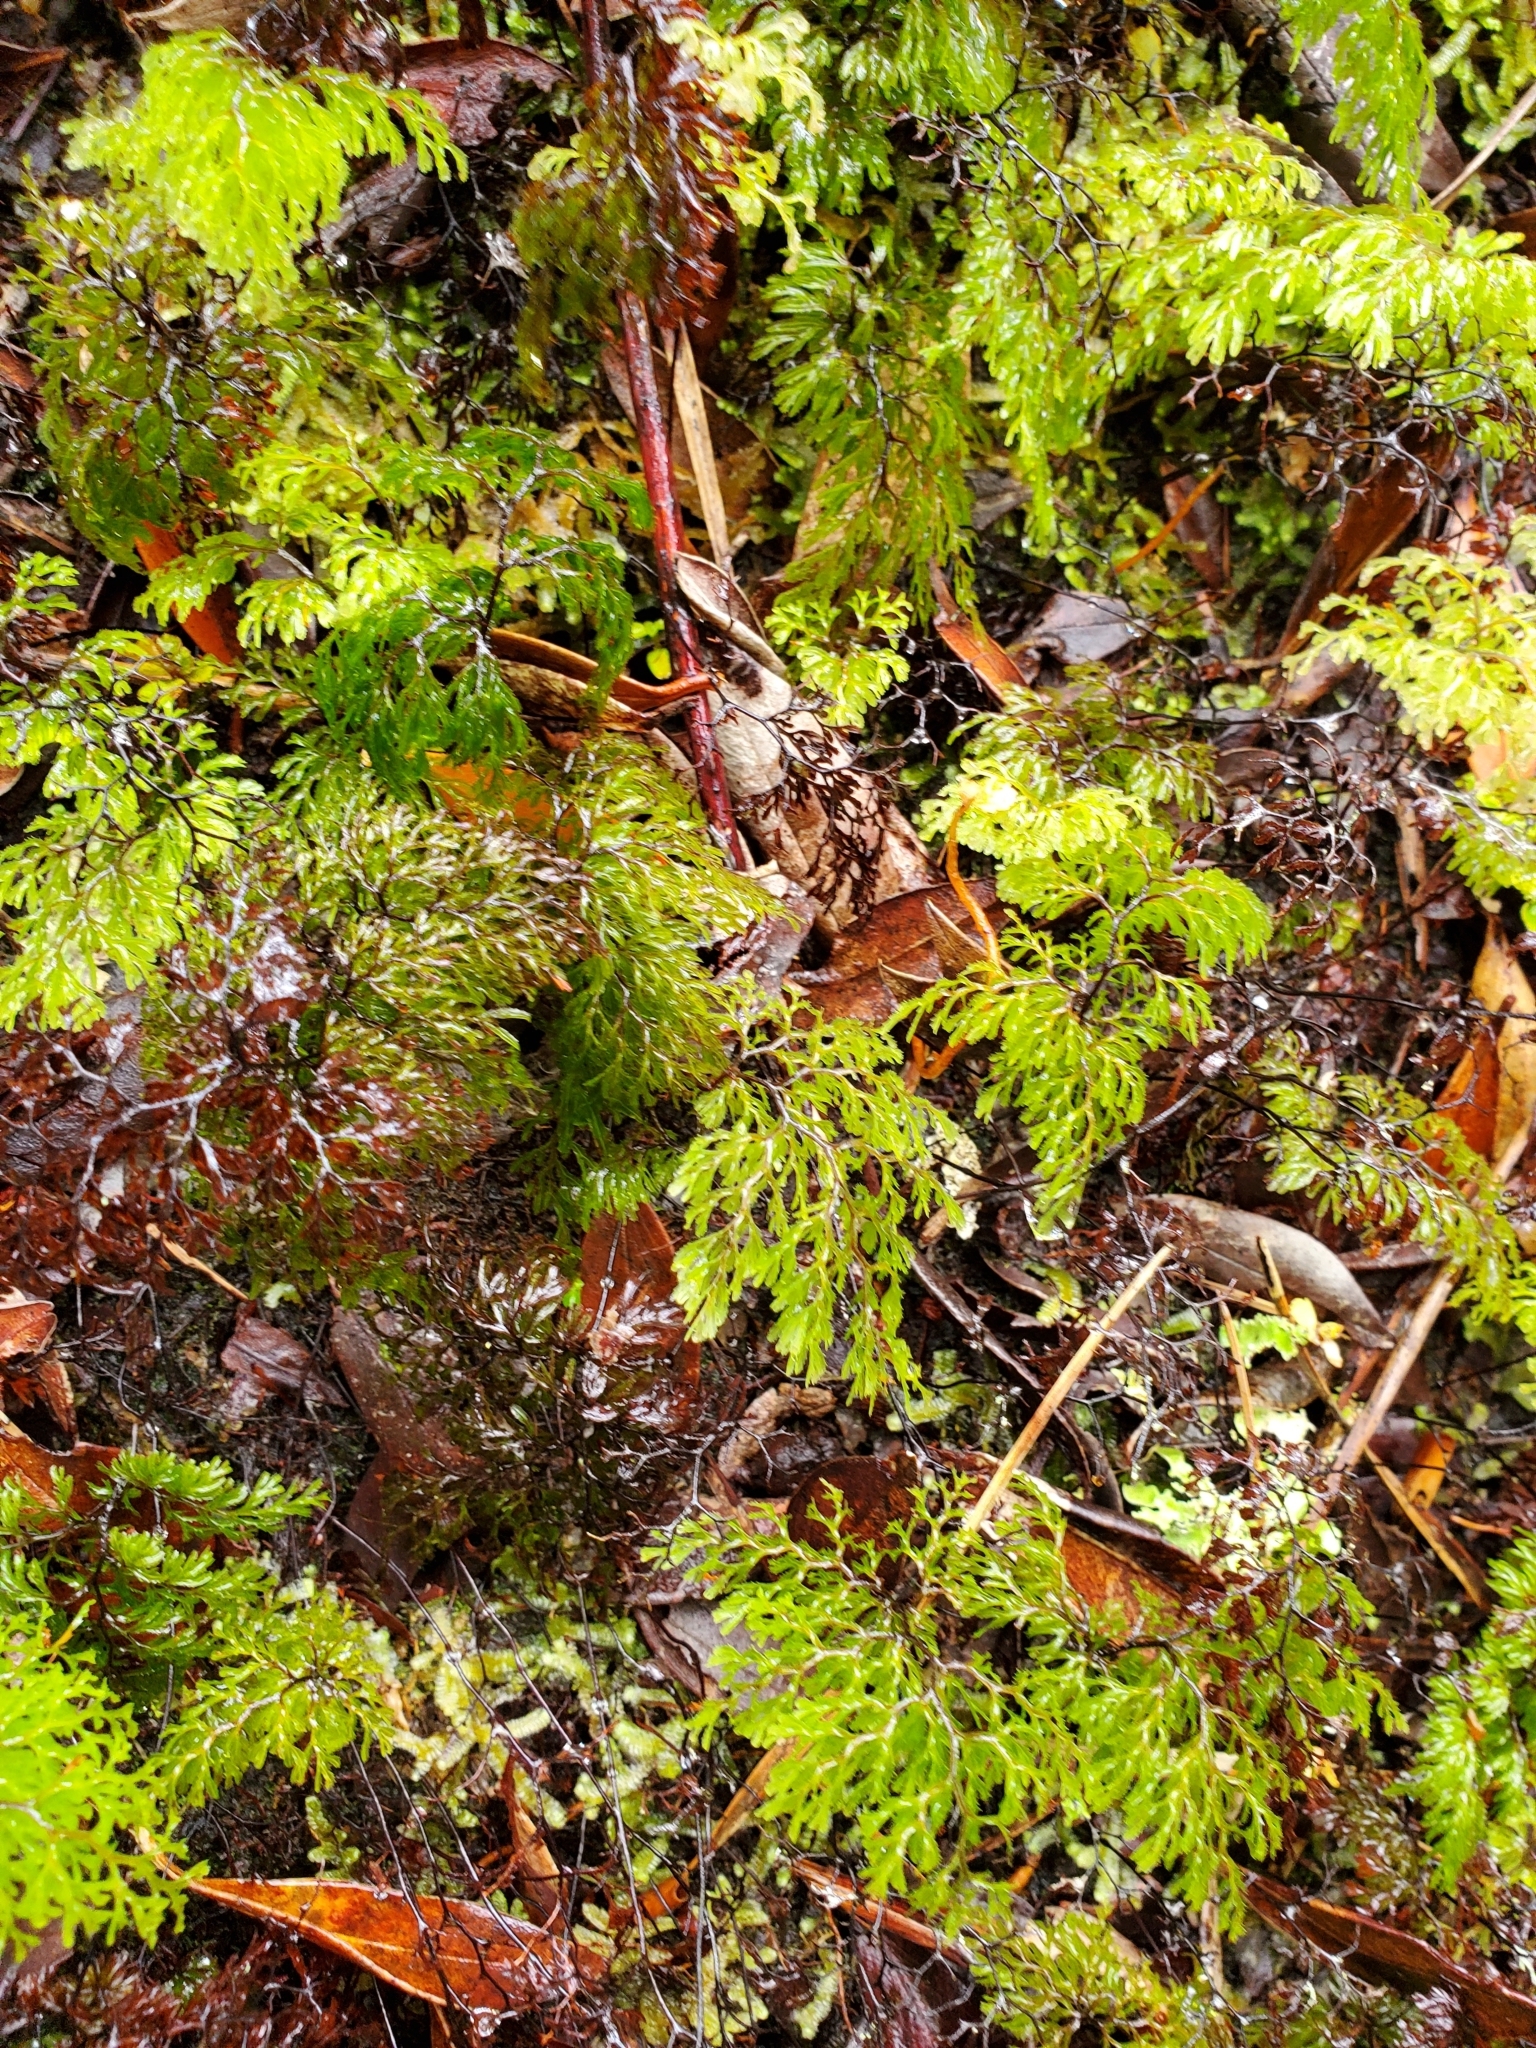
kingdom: Plantae
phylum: Tracheophyta
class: Polypodiopsida
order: Hymenophyllales
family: Hymenophyllaceae
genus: Hymenophyllum
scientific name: Hymenophyllum multifidum
